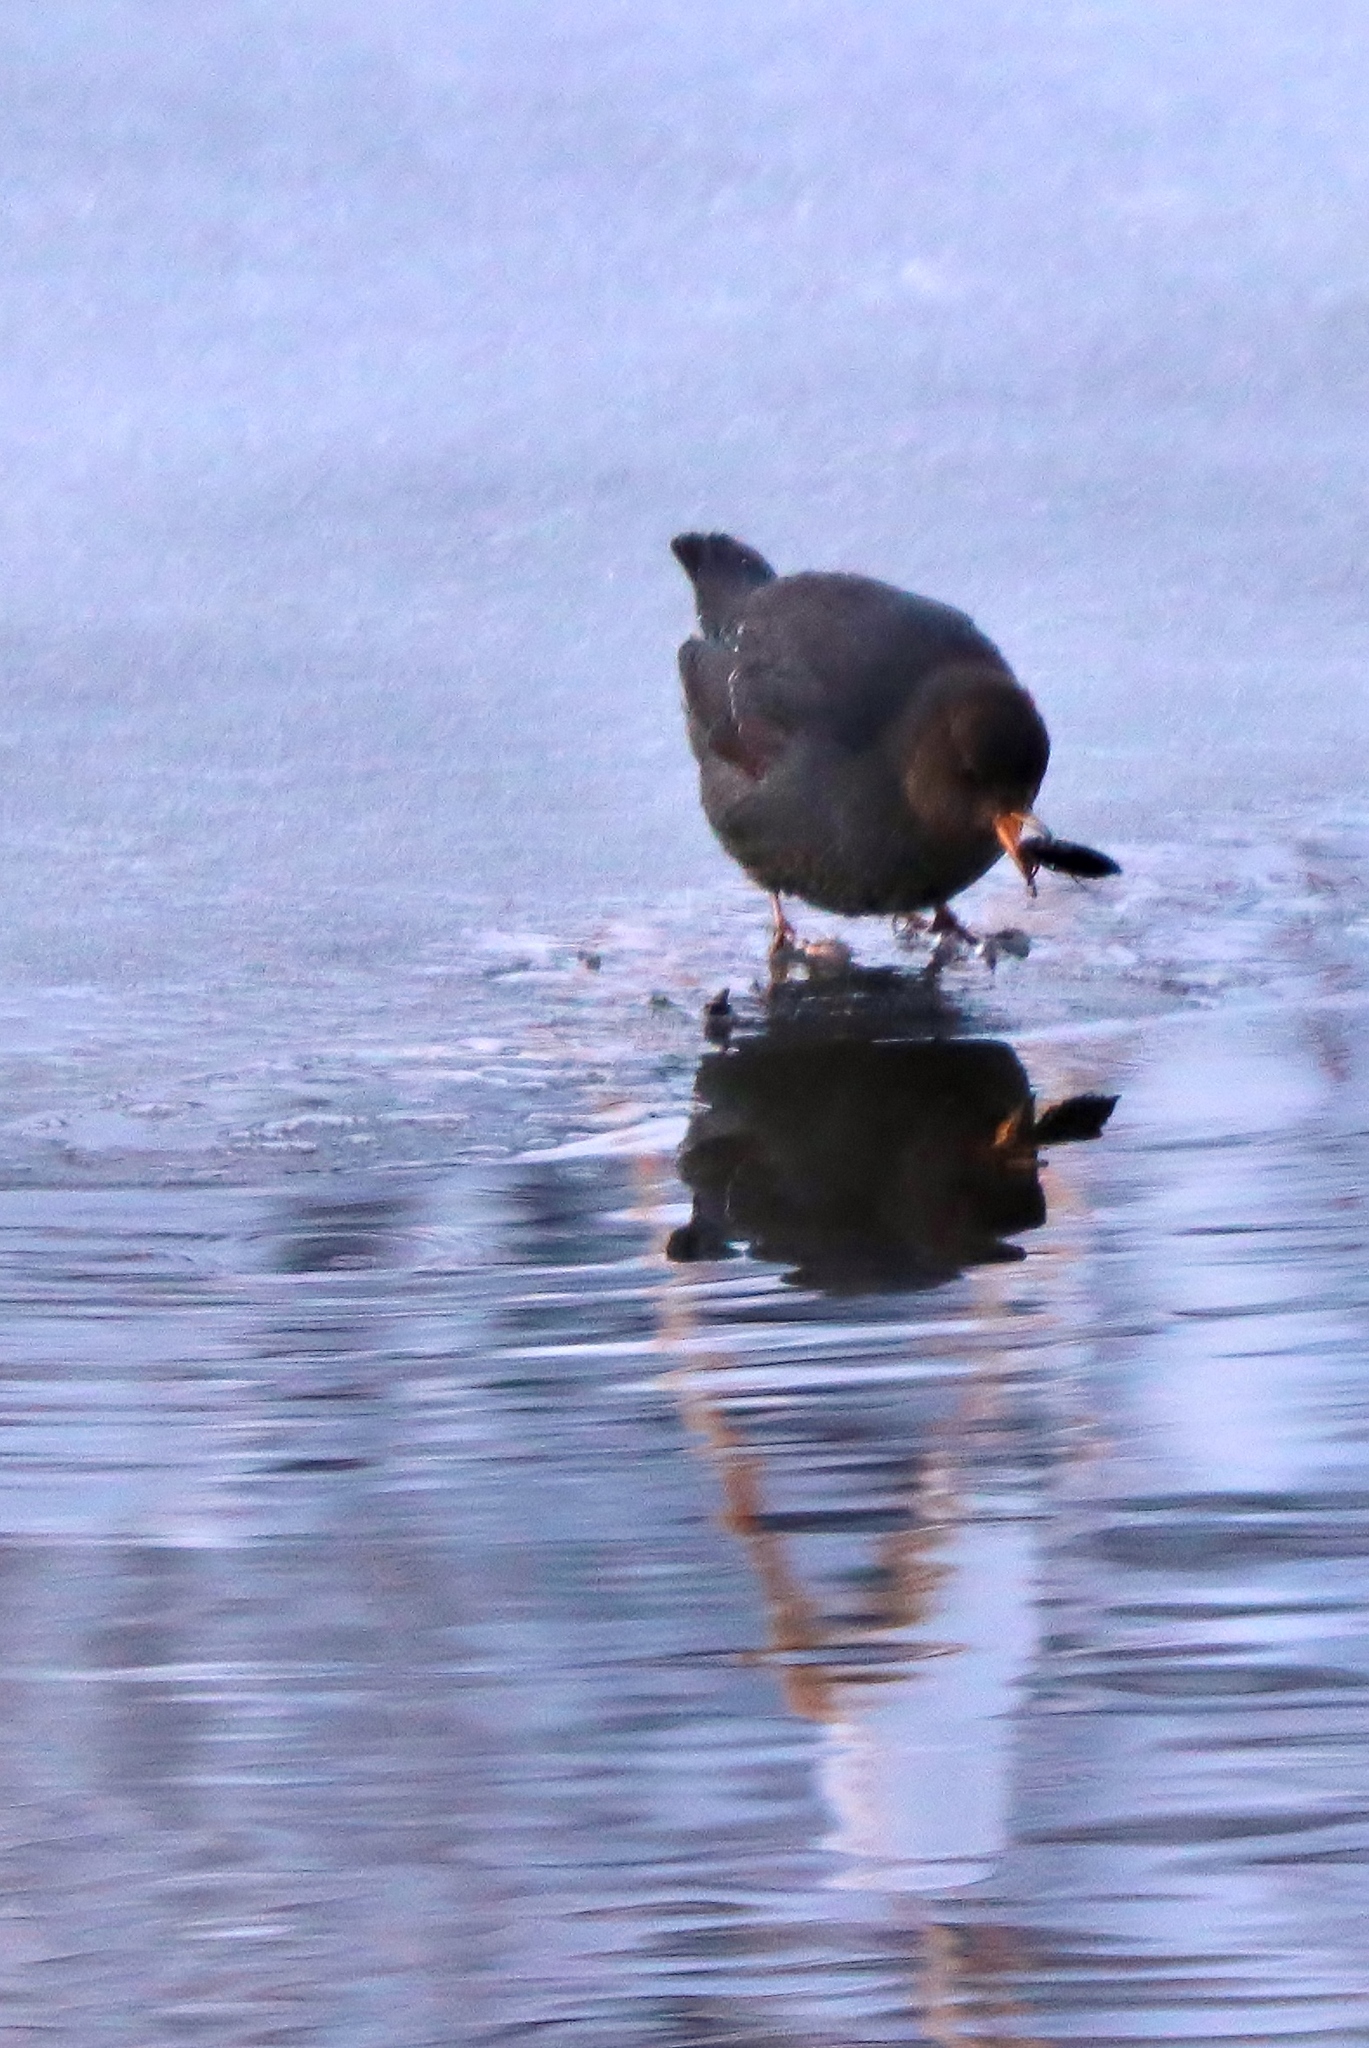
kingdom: Animalia
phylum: Chordata
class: Aves
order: Passeriformes
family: Cinclidae
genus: Cinclus
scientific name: Cinclus mexicanus
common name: American dipper
